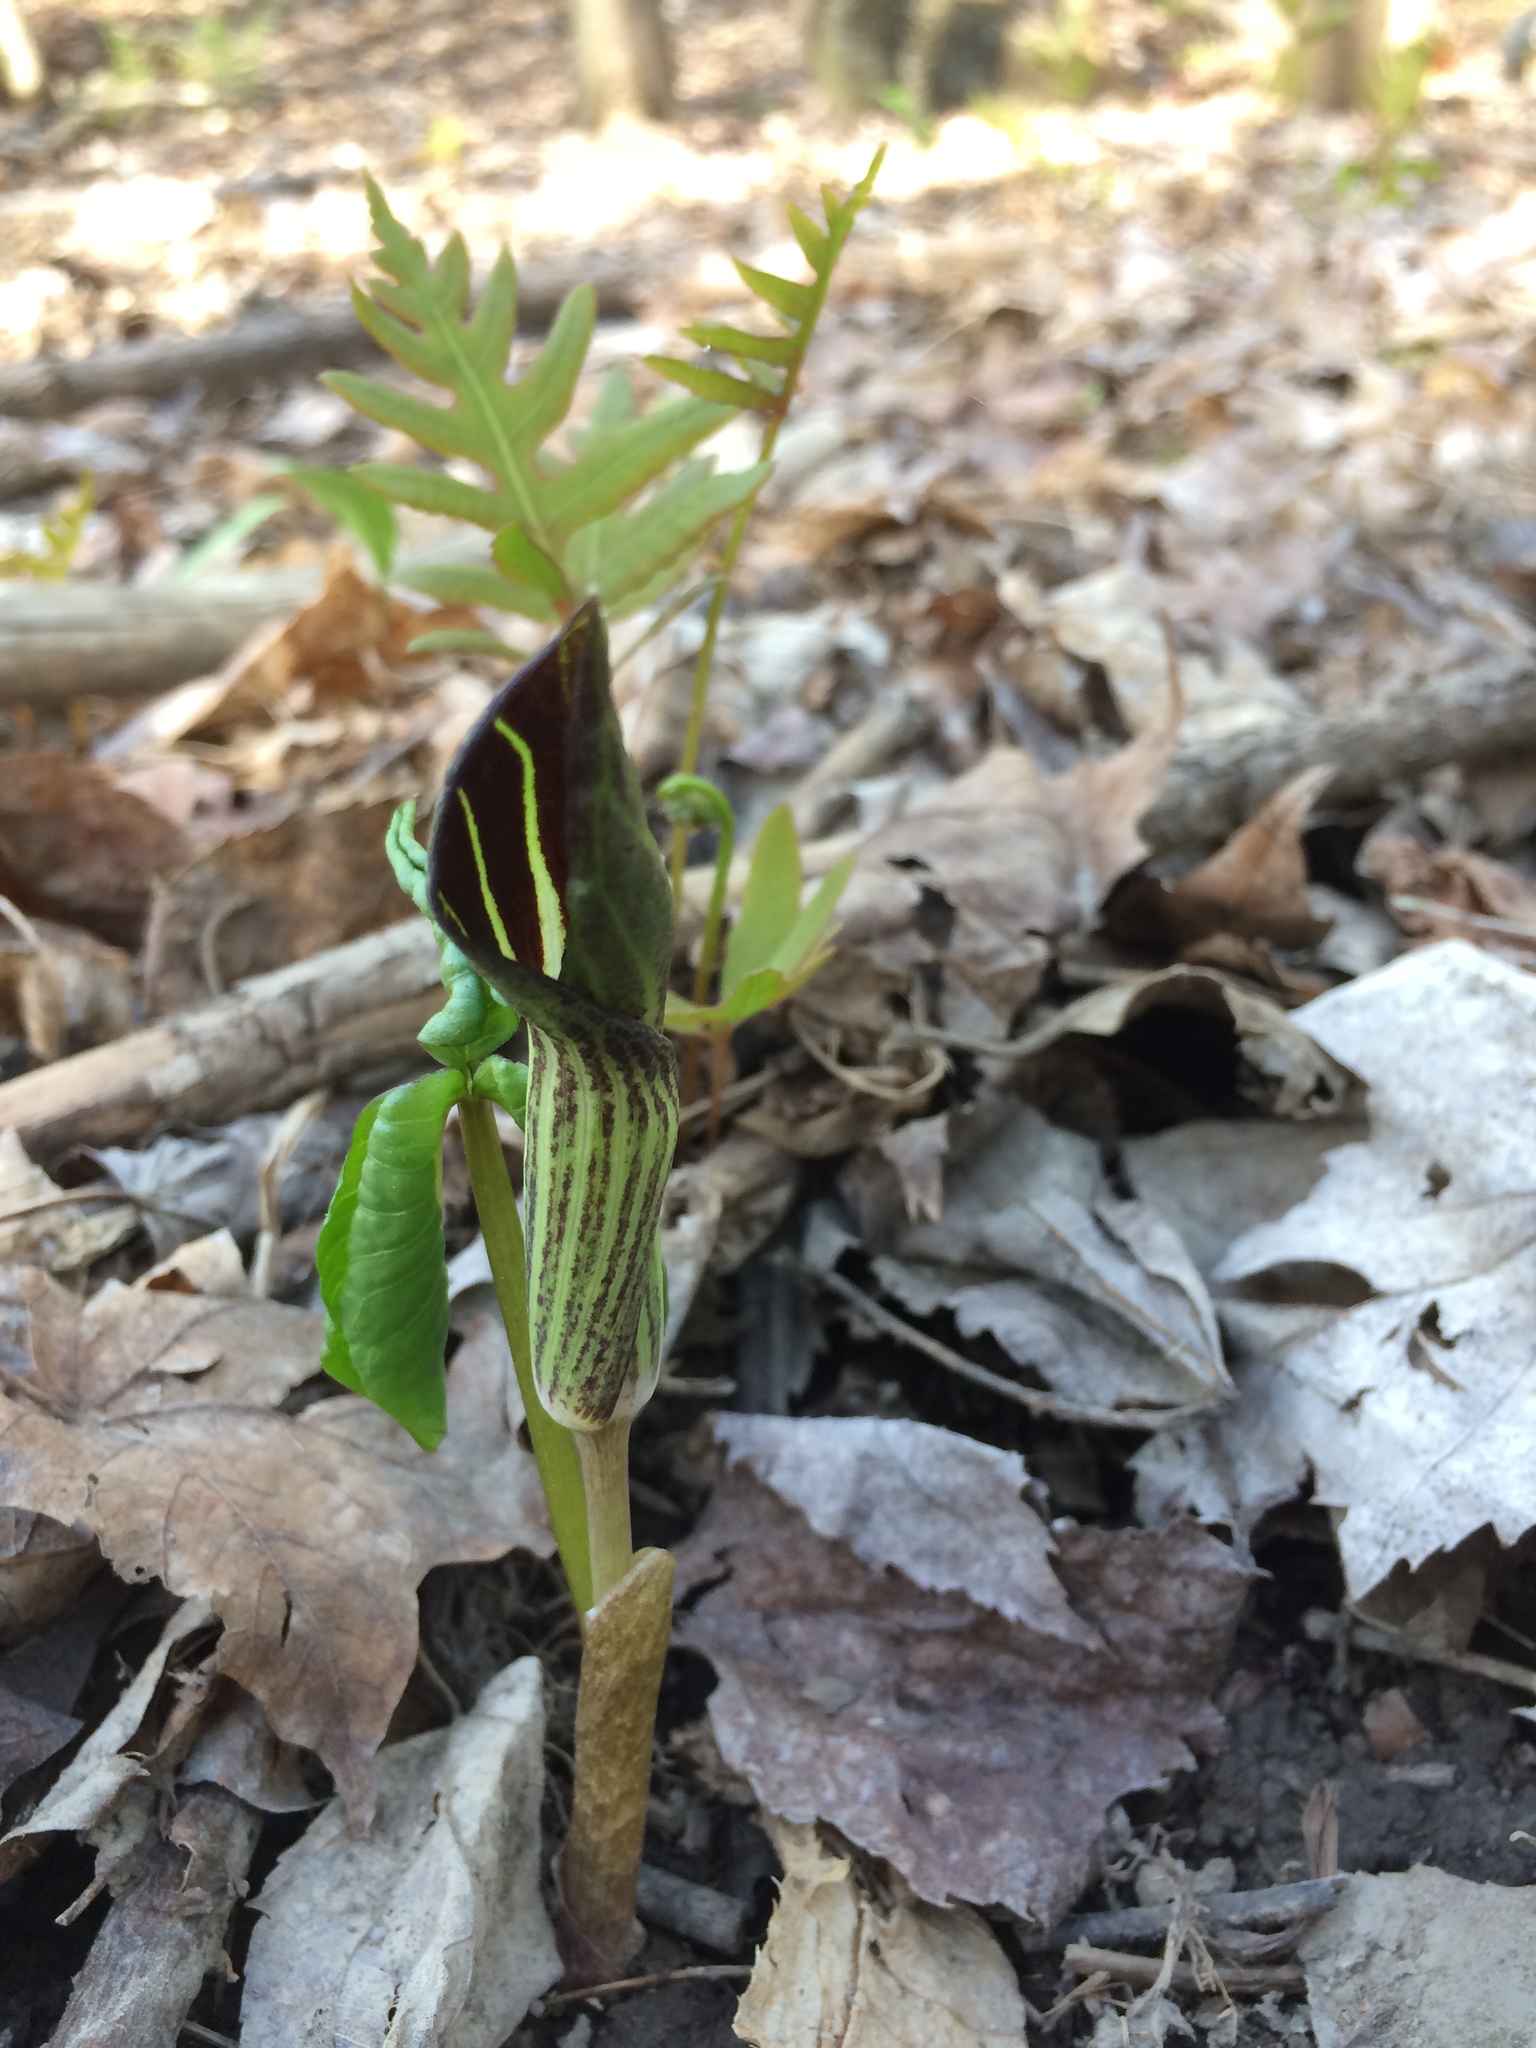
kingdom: Plantae
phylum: Tracheophyta
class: Liliopsida
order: Alismatales
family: Araceae
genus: Arisaema
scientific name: Arisaema triphyllum
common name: Jack-in-the-pulpit
